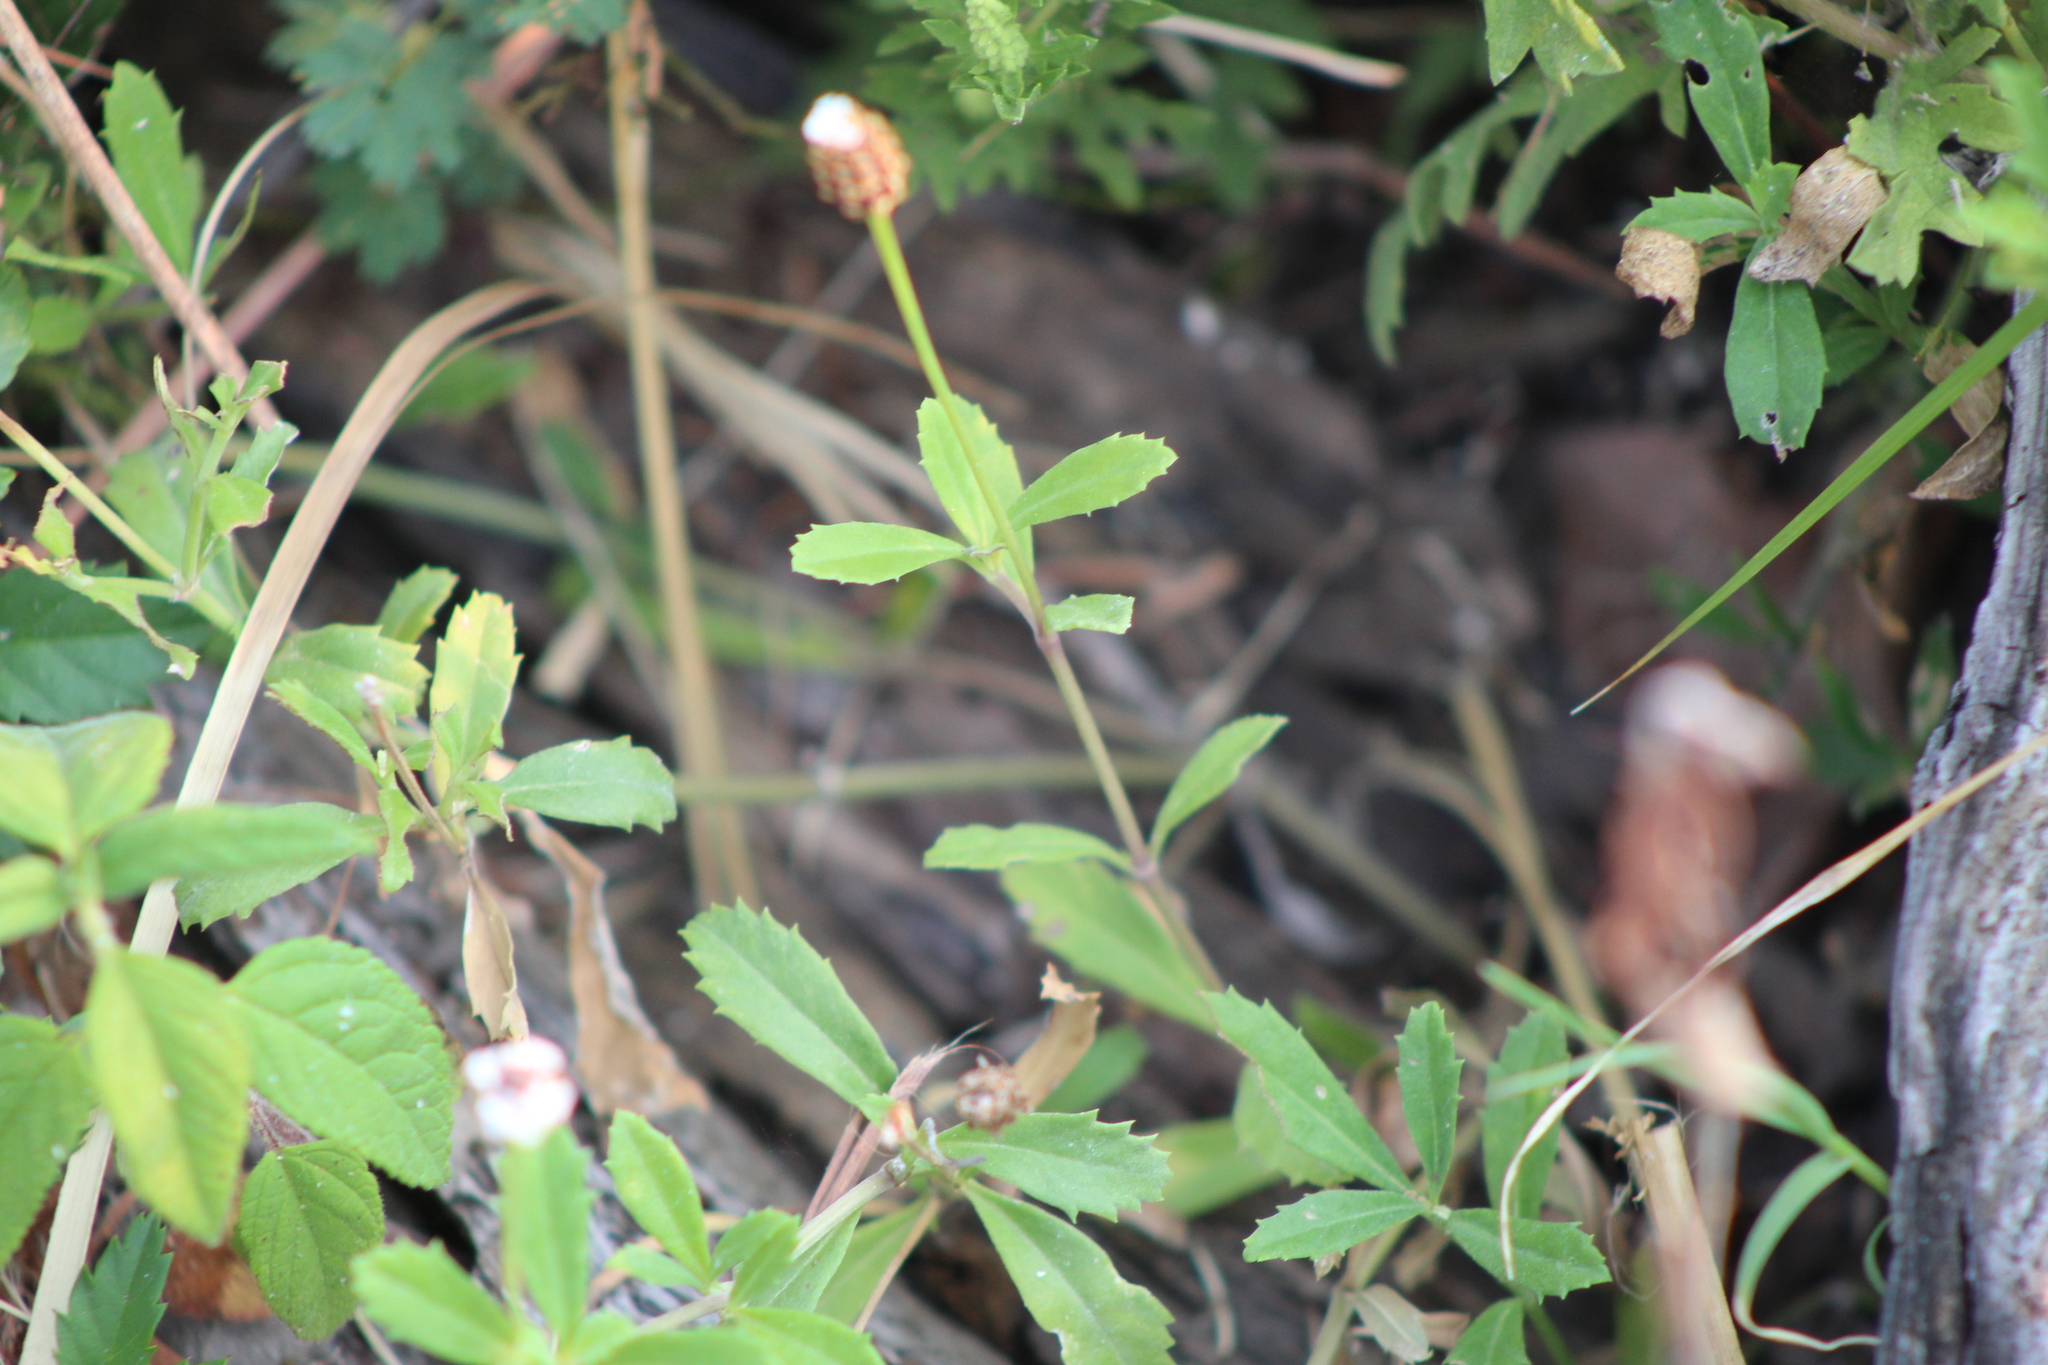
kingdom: Plantae
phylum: Tracheophyta
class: Magnoliopsida
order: Lamiales
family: Verbenaceae
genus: Phyla
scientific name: Phyla nodiflora
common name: Frogfruit
